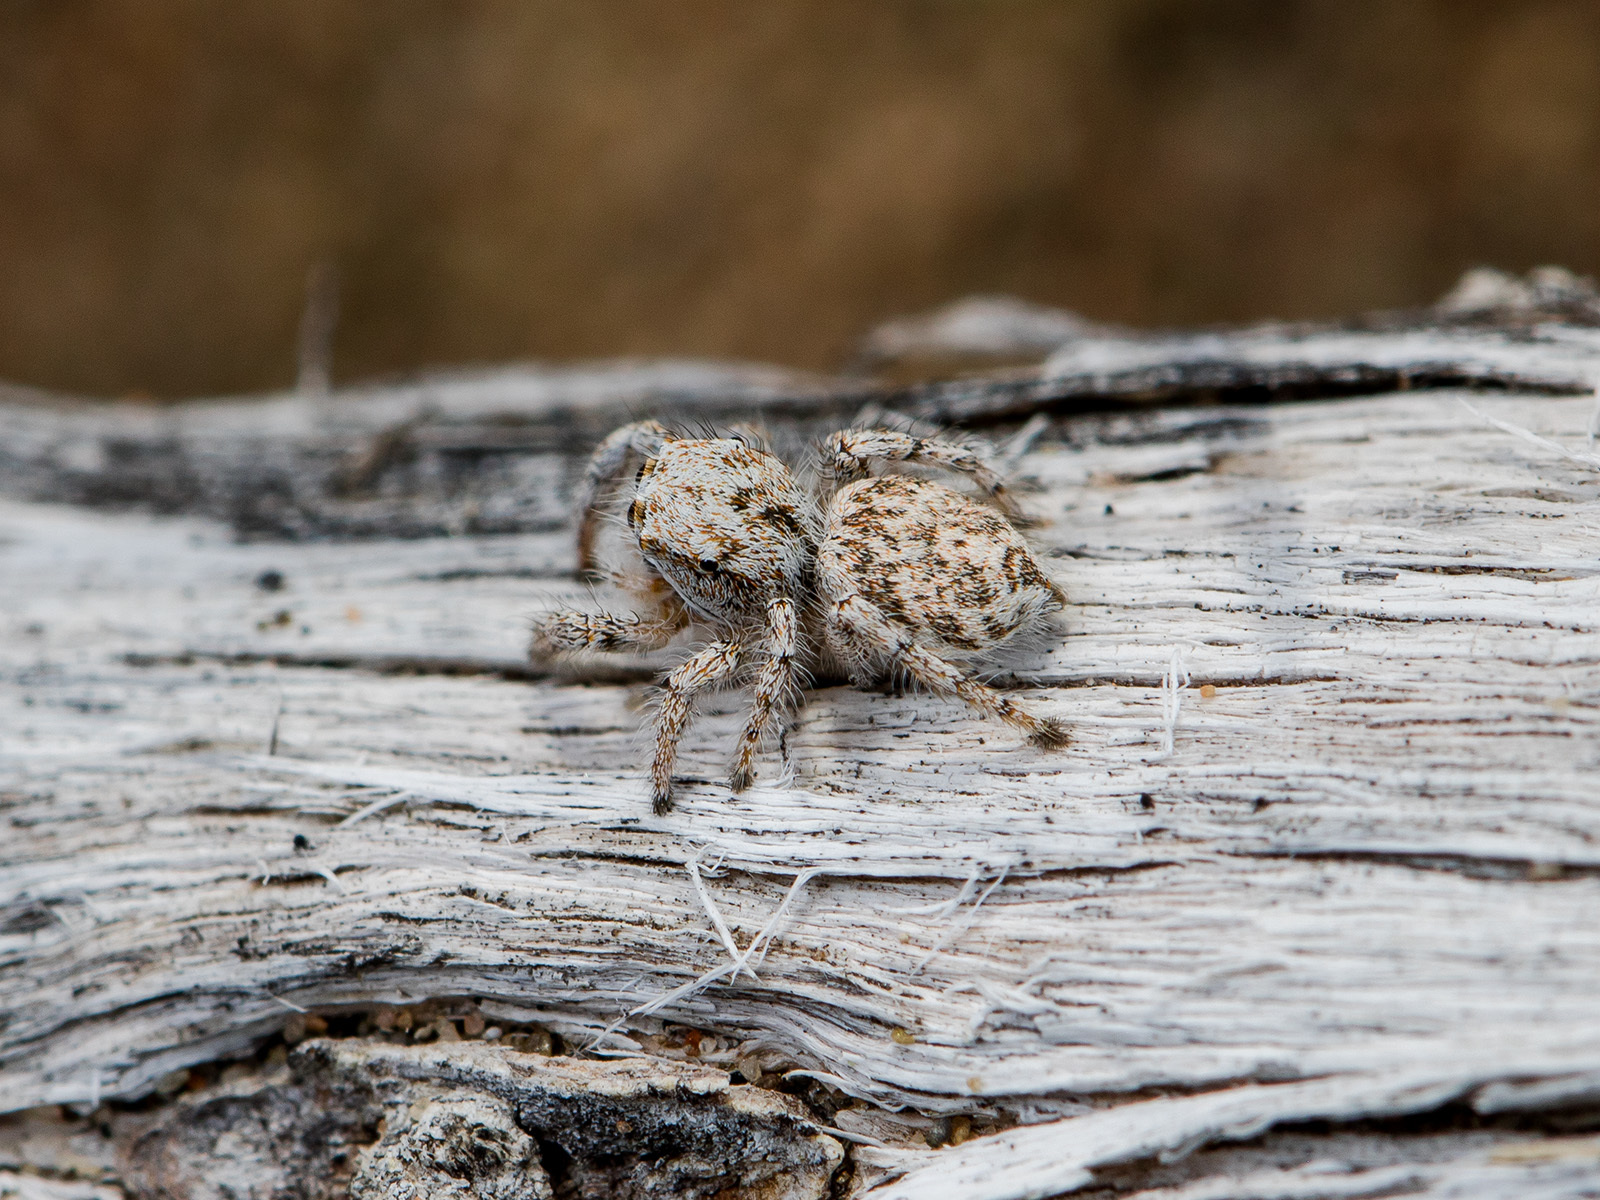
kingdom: Animalia
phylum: Arthropoda
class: Arachnida
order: Araneae
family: Salticidae
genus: Pseudomogrus
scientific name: Pseudomogrus dalaensis
